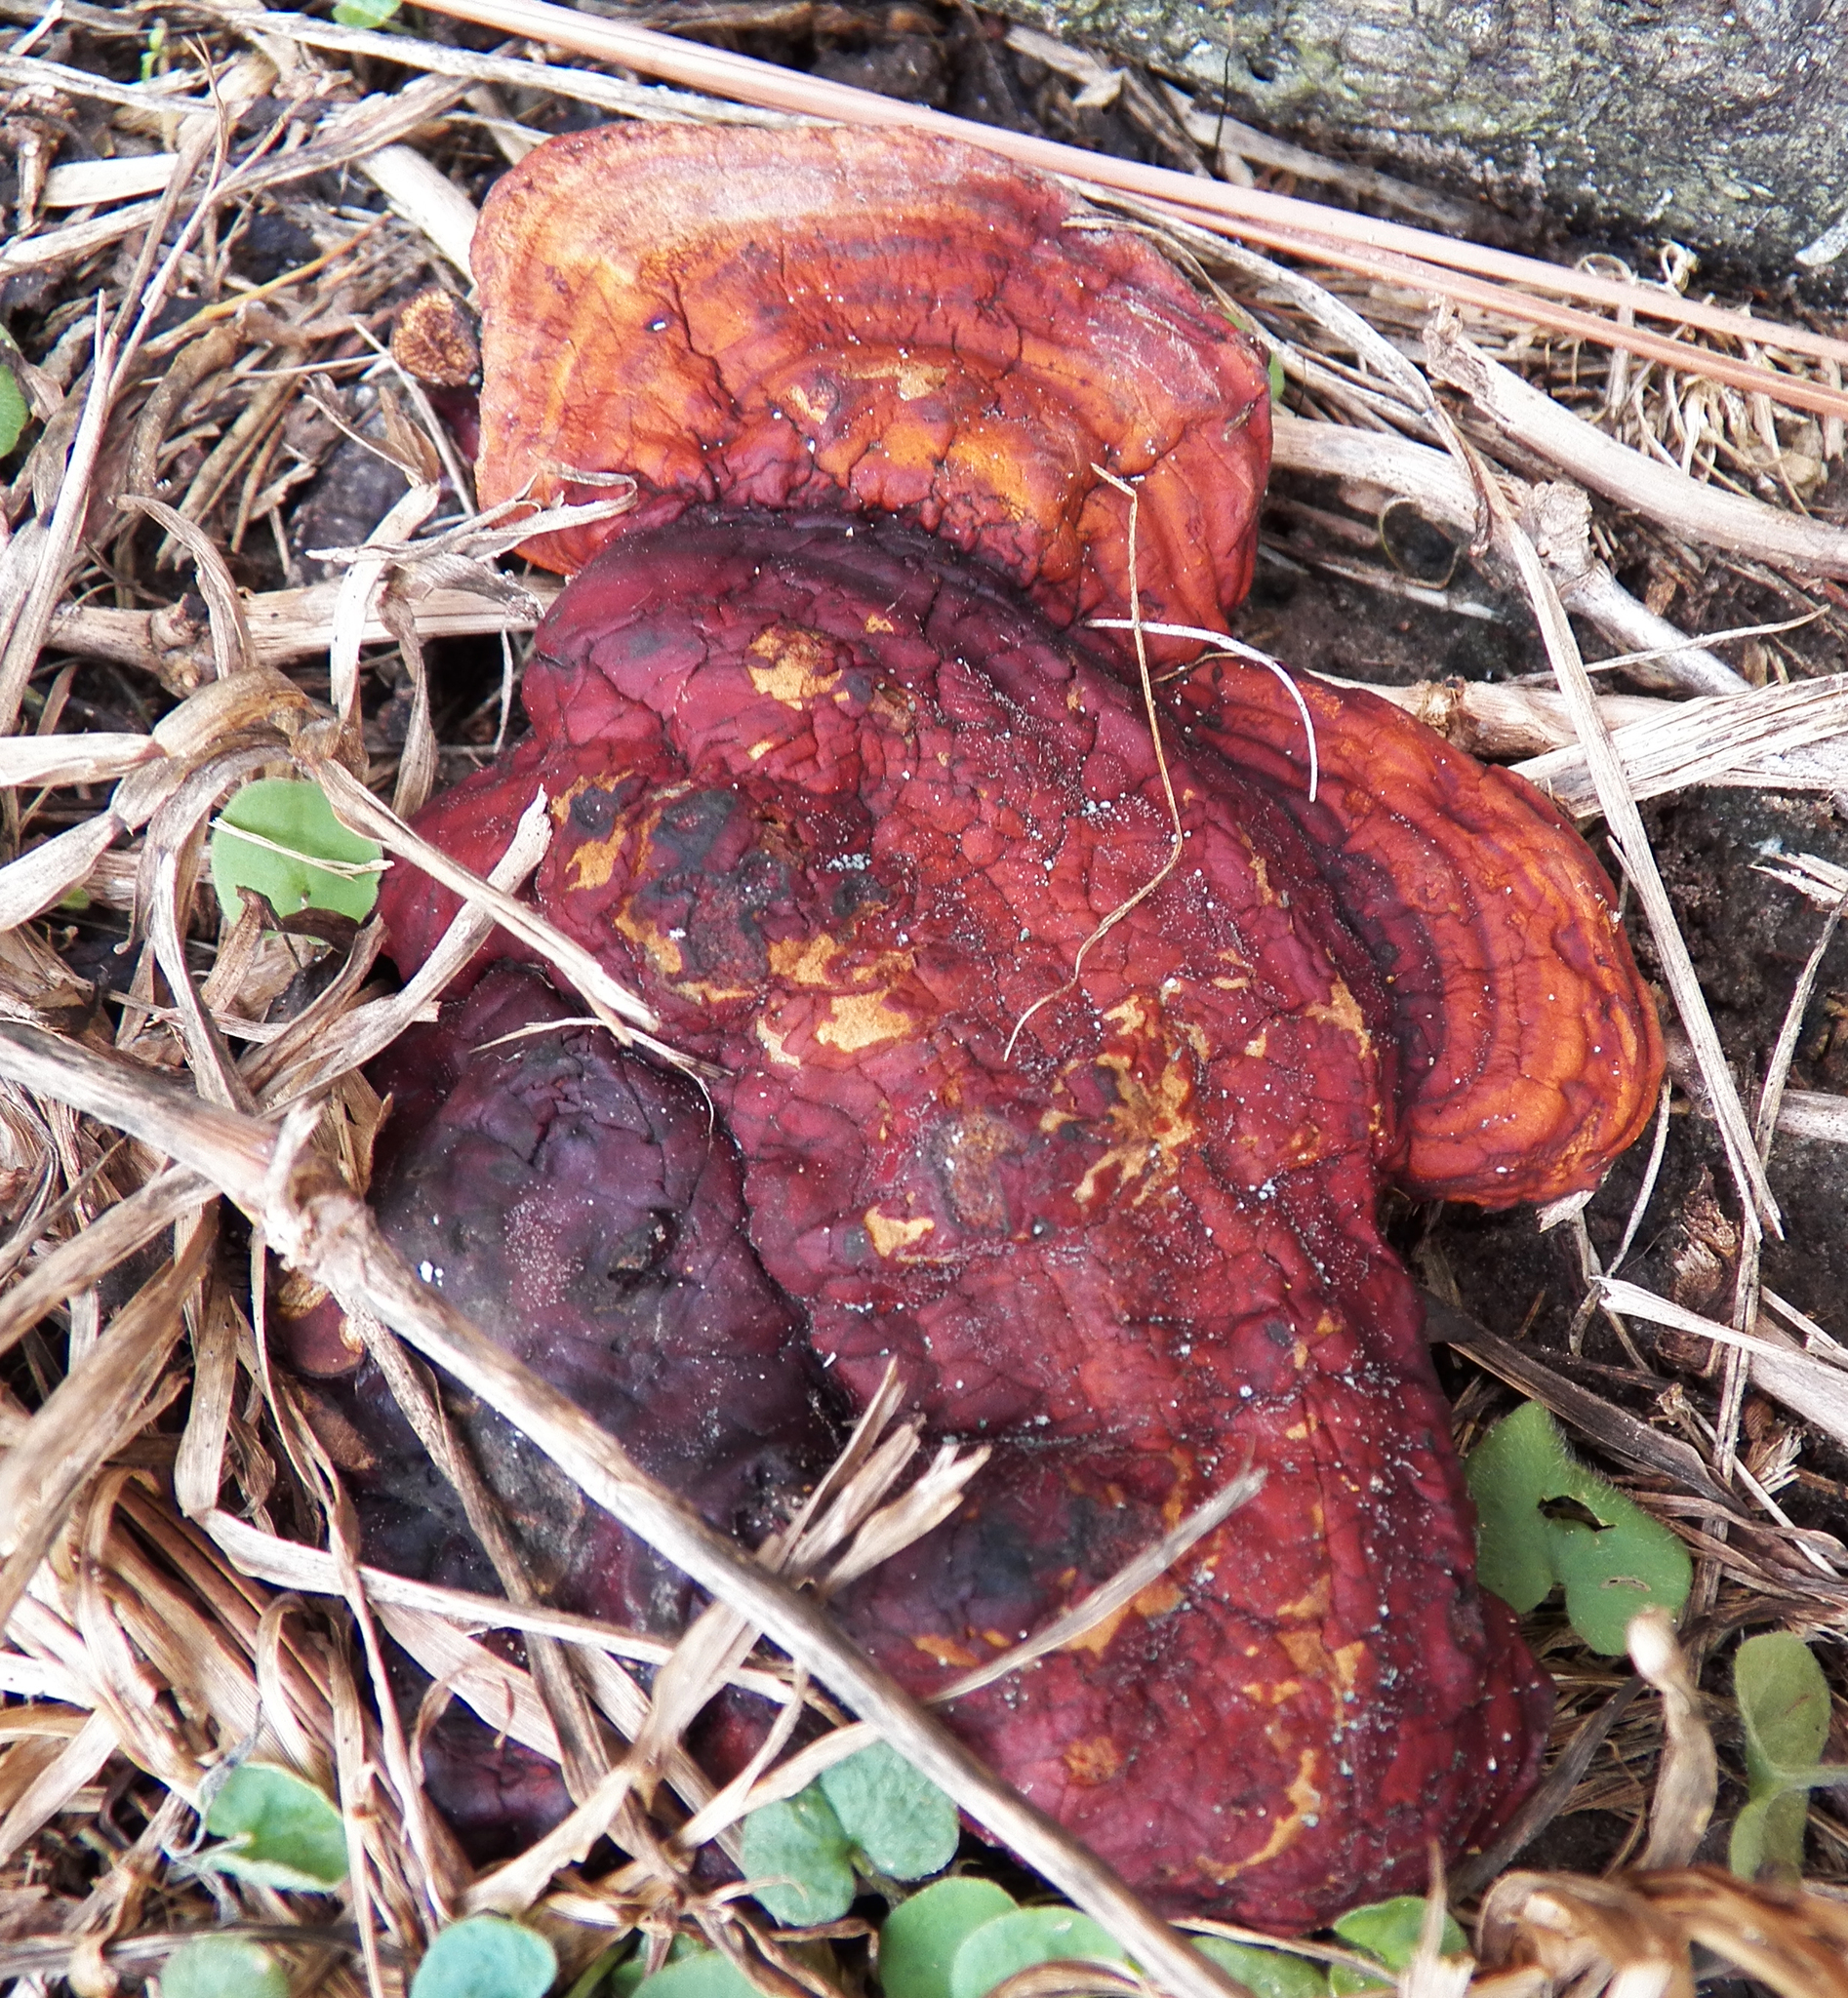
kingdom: Fungi
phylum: Basidiomycota
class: Agaricomycetes
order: Polyporales
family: Polyporaceae
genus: Ganoderma
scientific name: Ganoderma resinaceum
